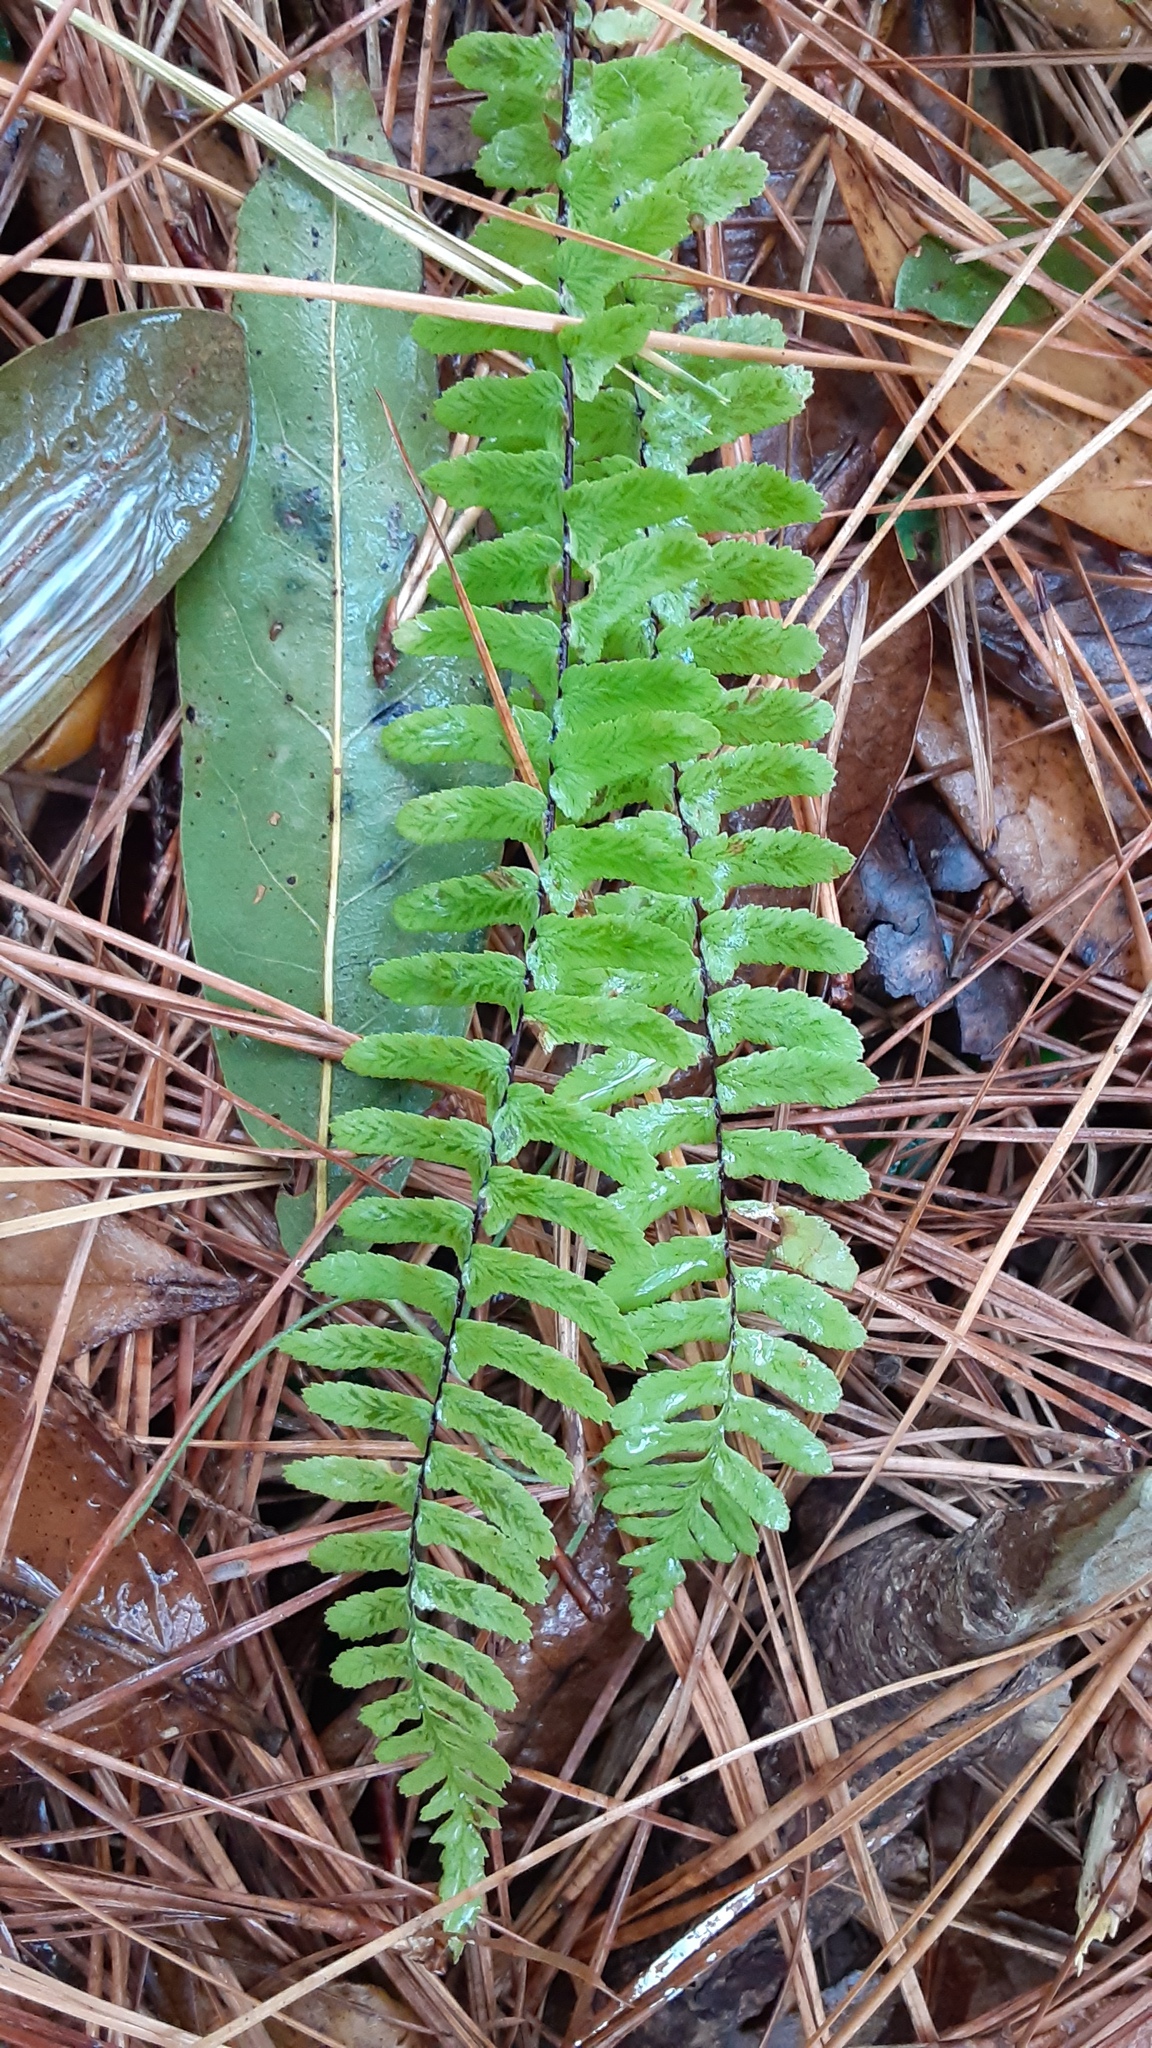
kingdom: Plantae
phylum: Tracheophyta
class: Polypodiopsida
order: Polypodiales
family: Aspleniaceae
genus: Asplenium
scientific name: Asplenium platyneuron
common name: Ebony spleenwort
